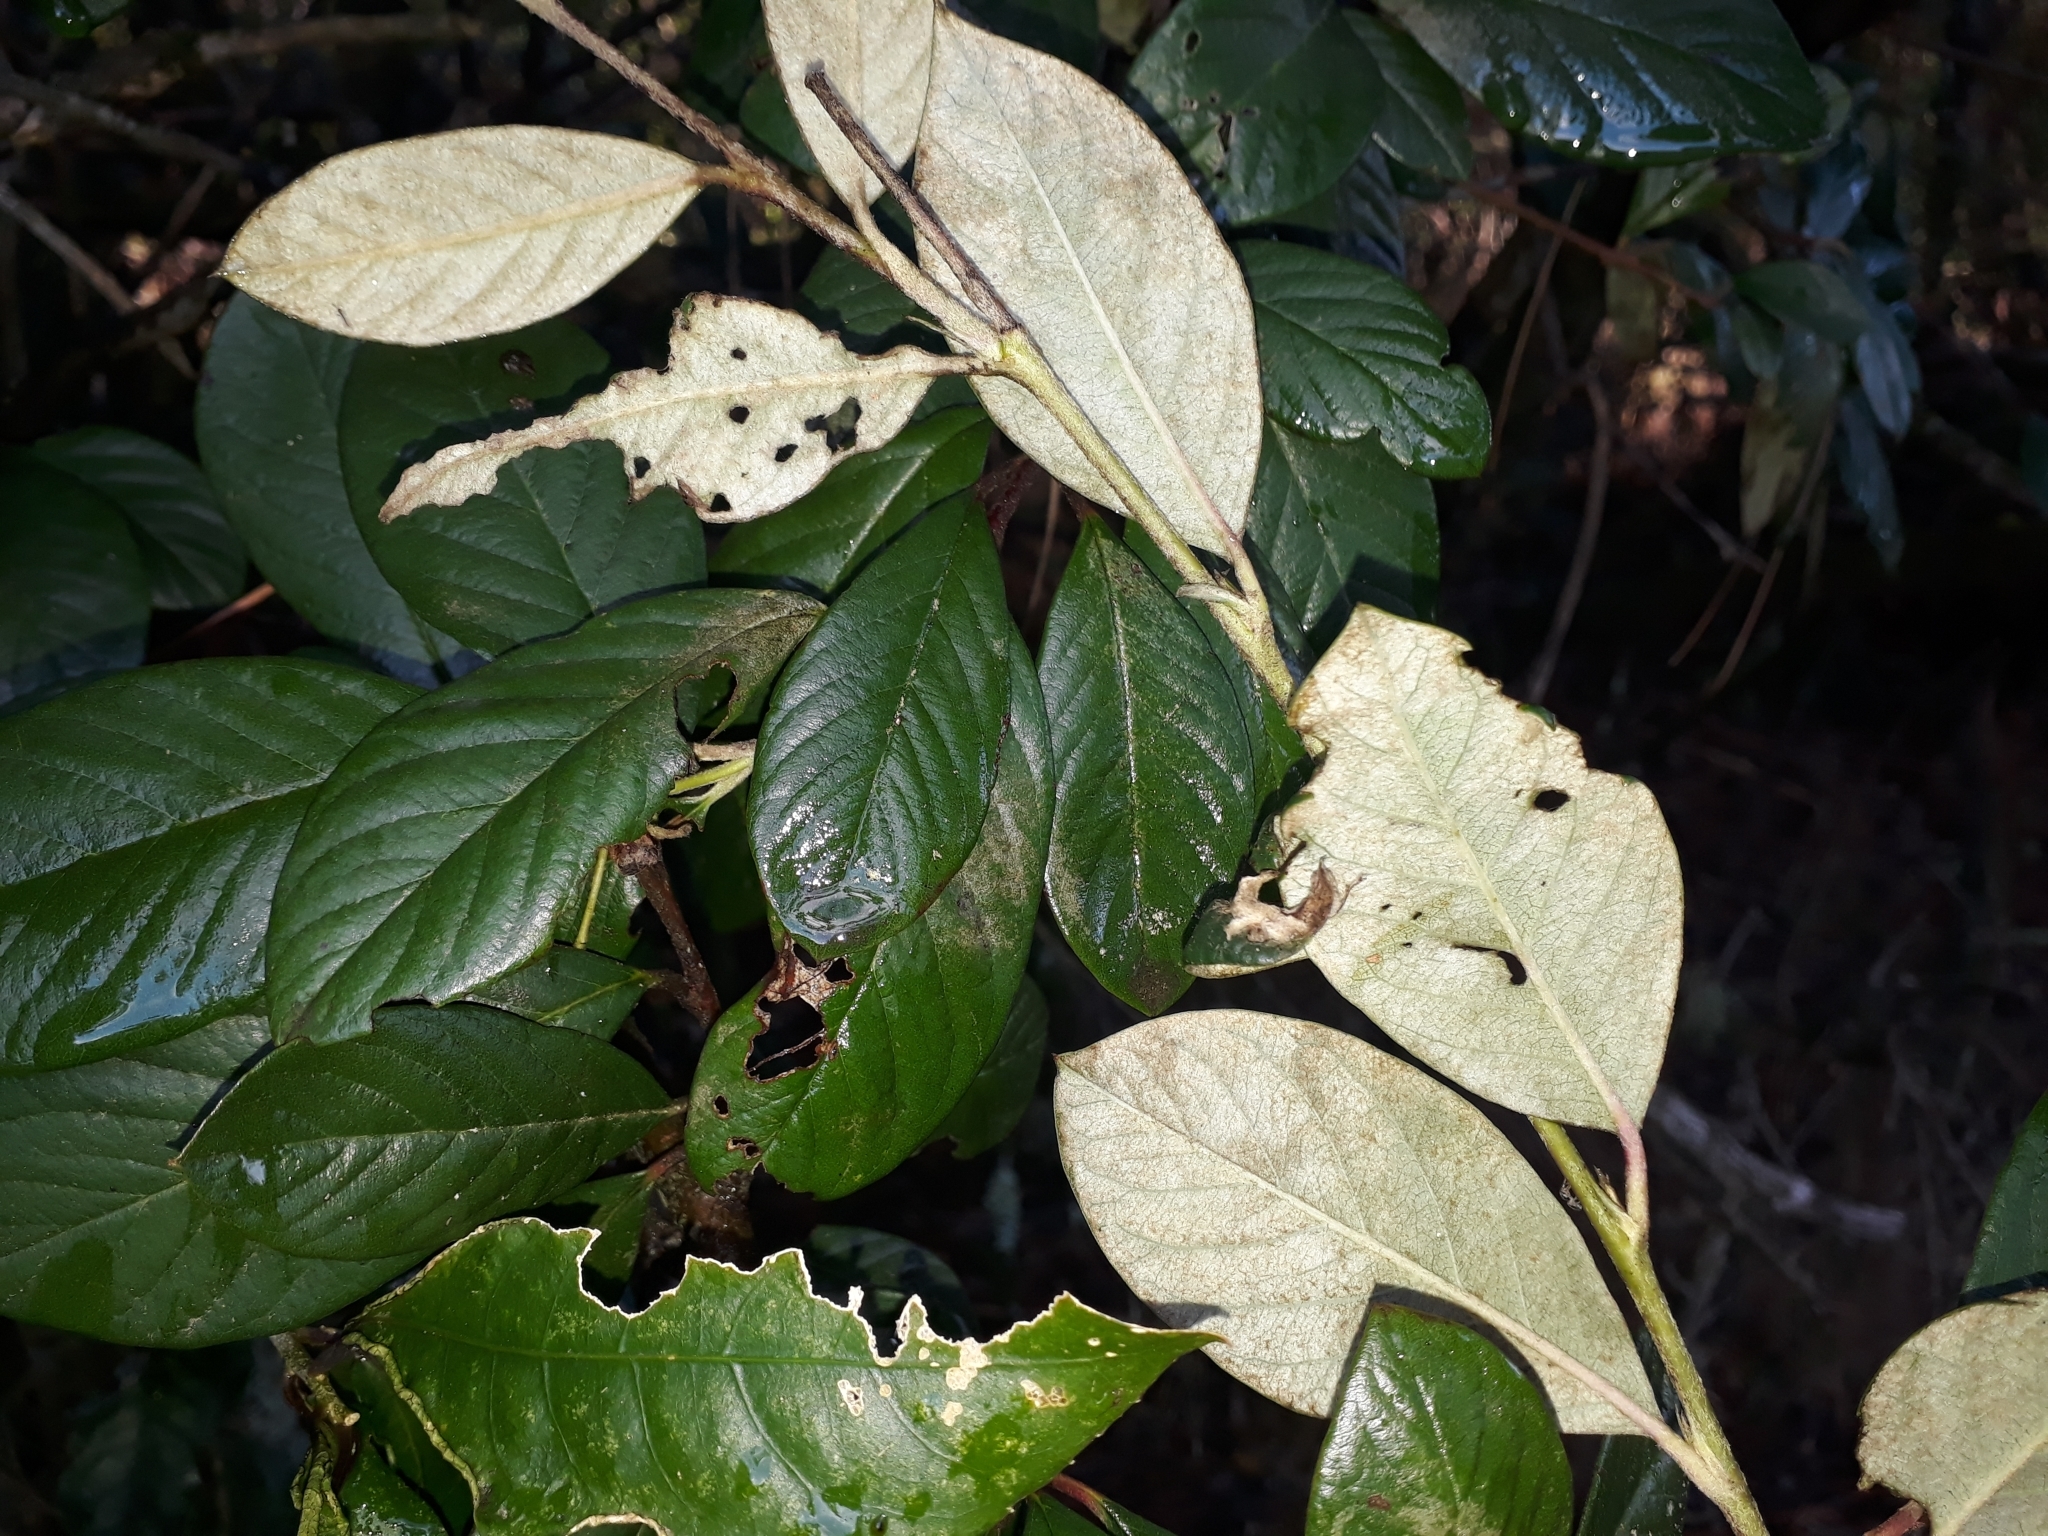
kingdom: Plantae
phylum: Tracheophyta
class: Magnoliopsida
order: Rosales
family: Rosaceae
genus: Cotoneaster
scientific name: Cotoneaster coriaceus
